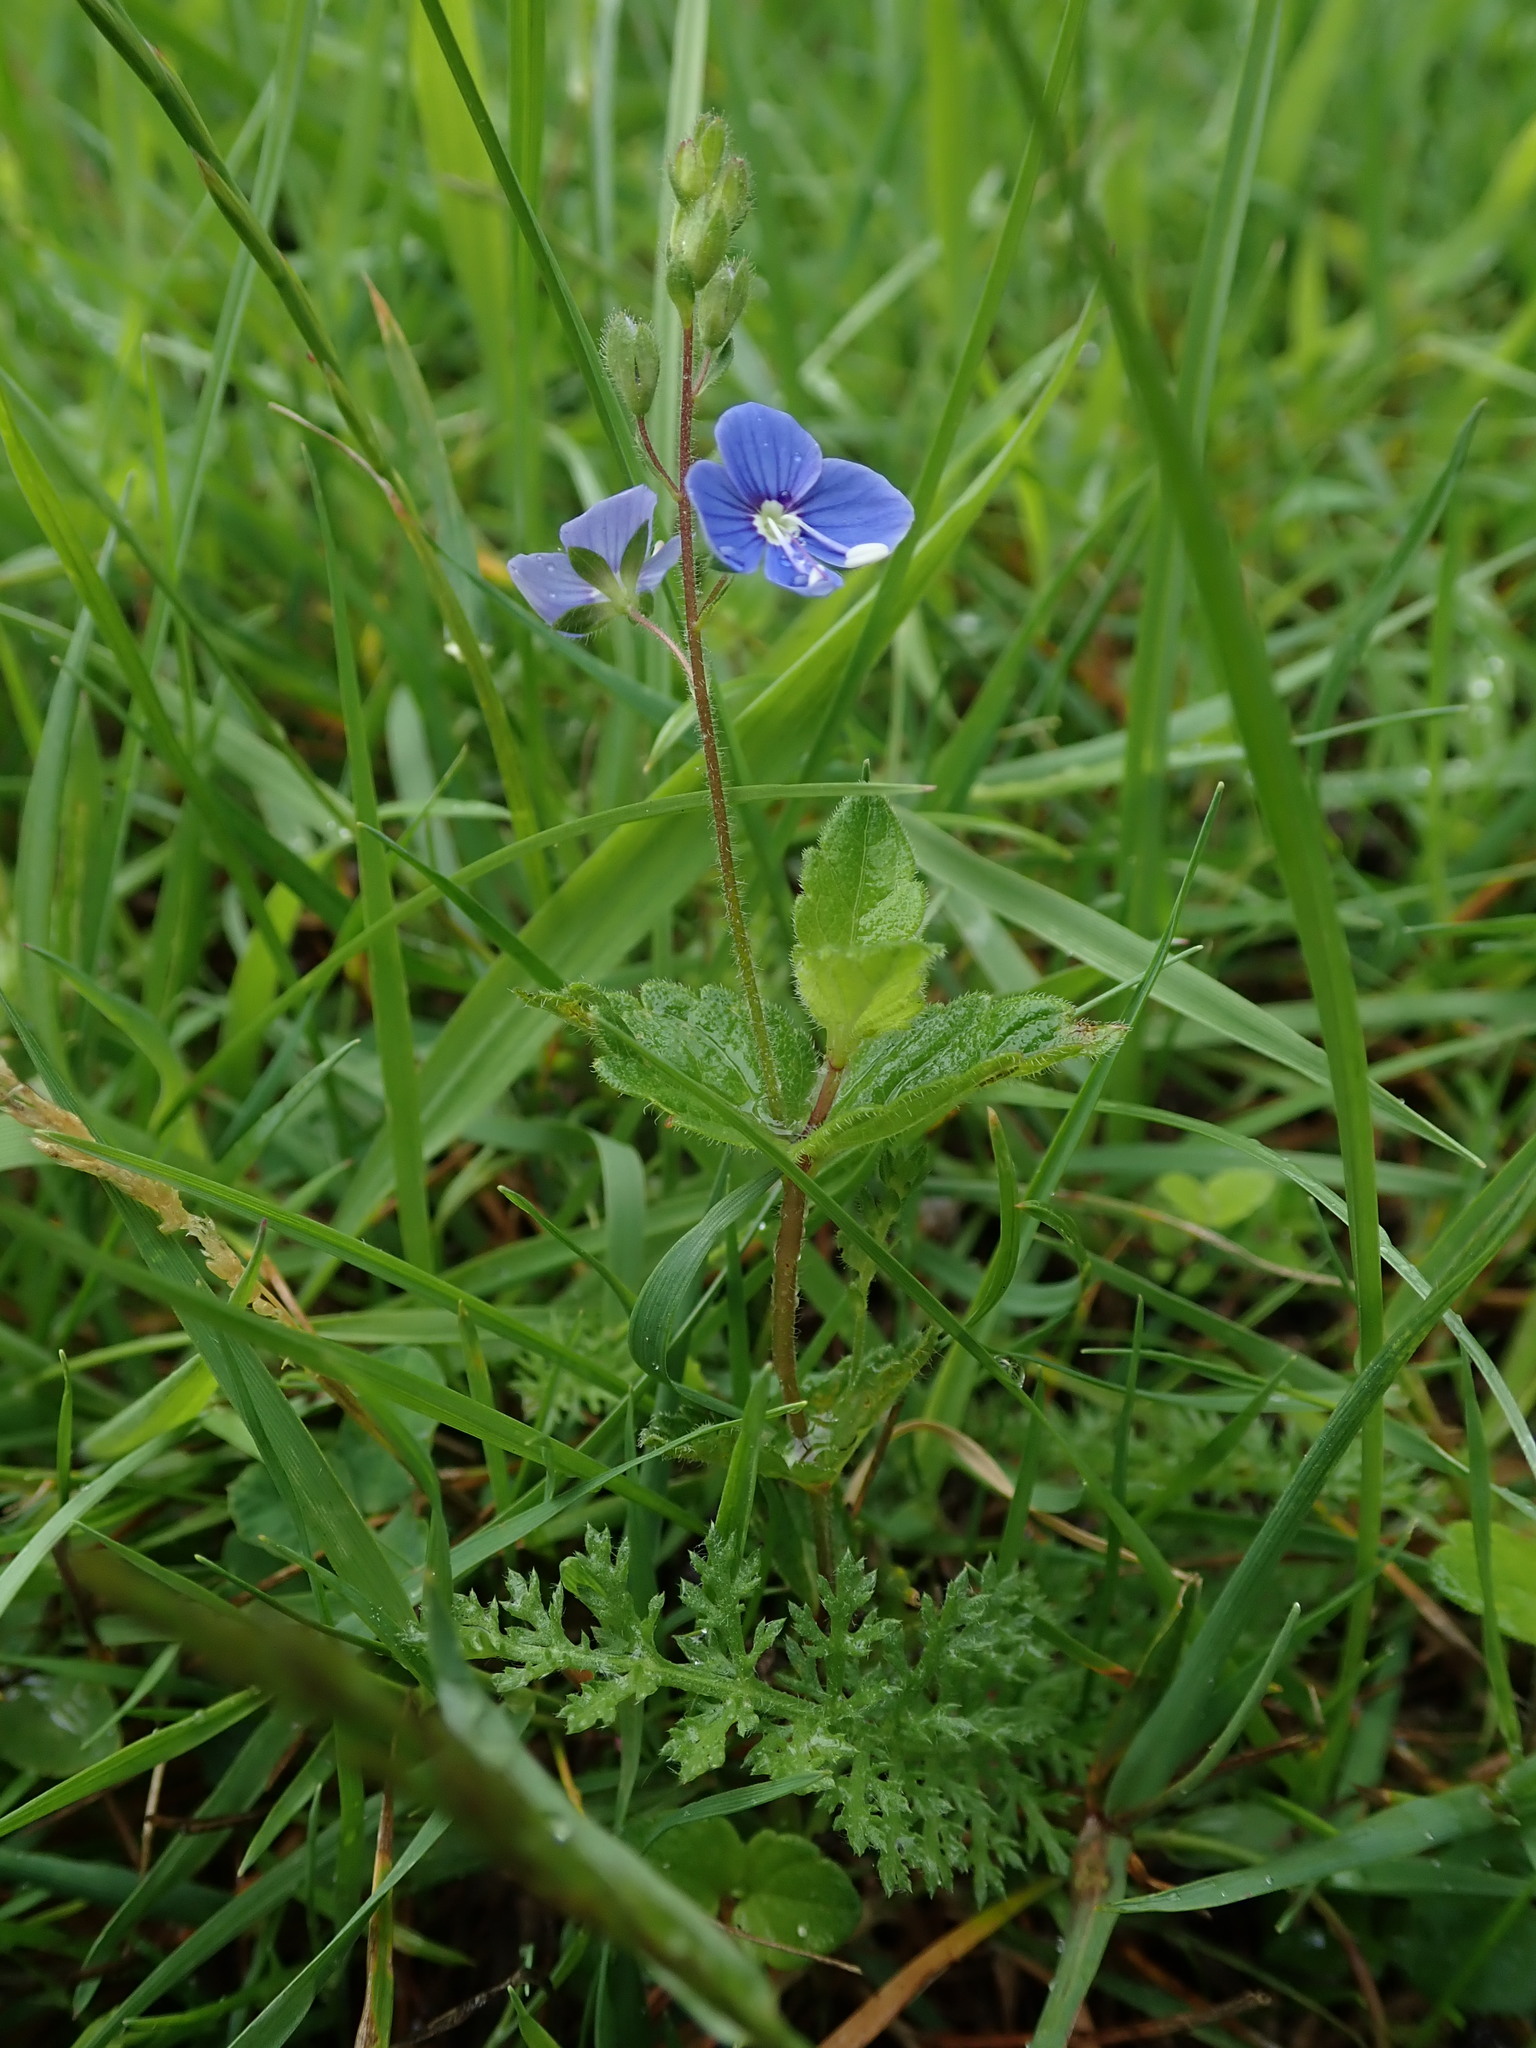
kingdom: Plantae
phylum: Tracheophyta
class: Magnoliopsida
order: Lamiales
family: Plantaginaceae
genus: Veronica
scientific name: Veronica chamaedrys
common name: Germander speedwell
